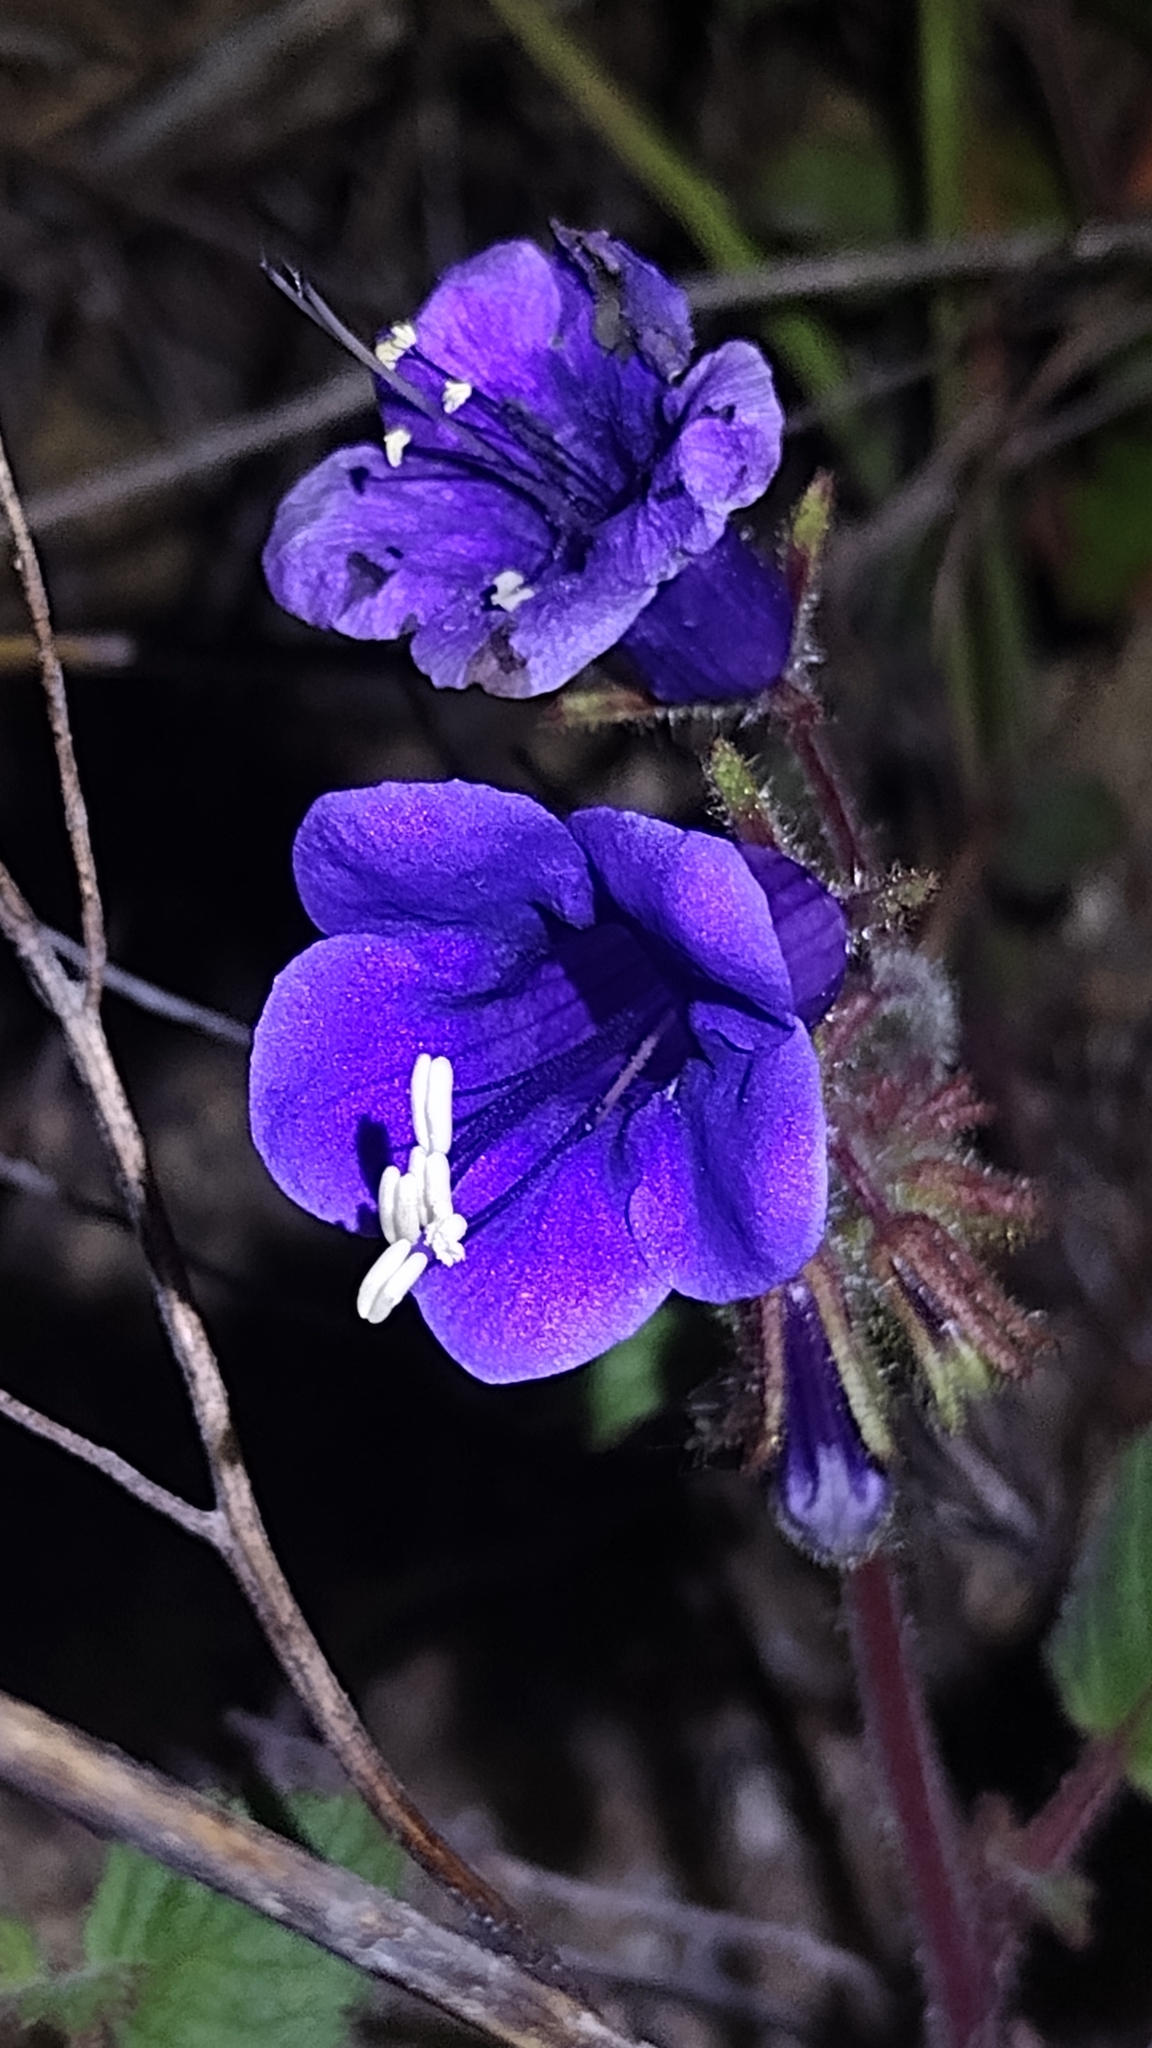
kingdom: Plantae
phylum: Tracheophyta
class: Magnoliopsida
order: Boraginales
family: Hydrophyllaceae
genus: Phacelia
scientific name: Phacelia minor
